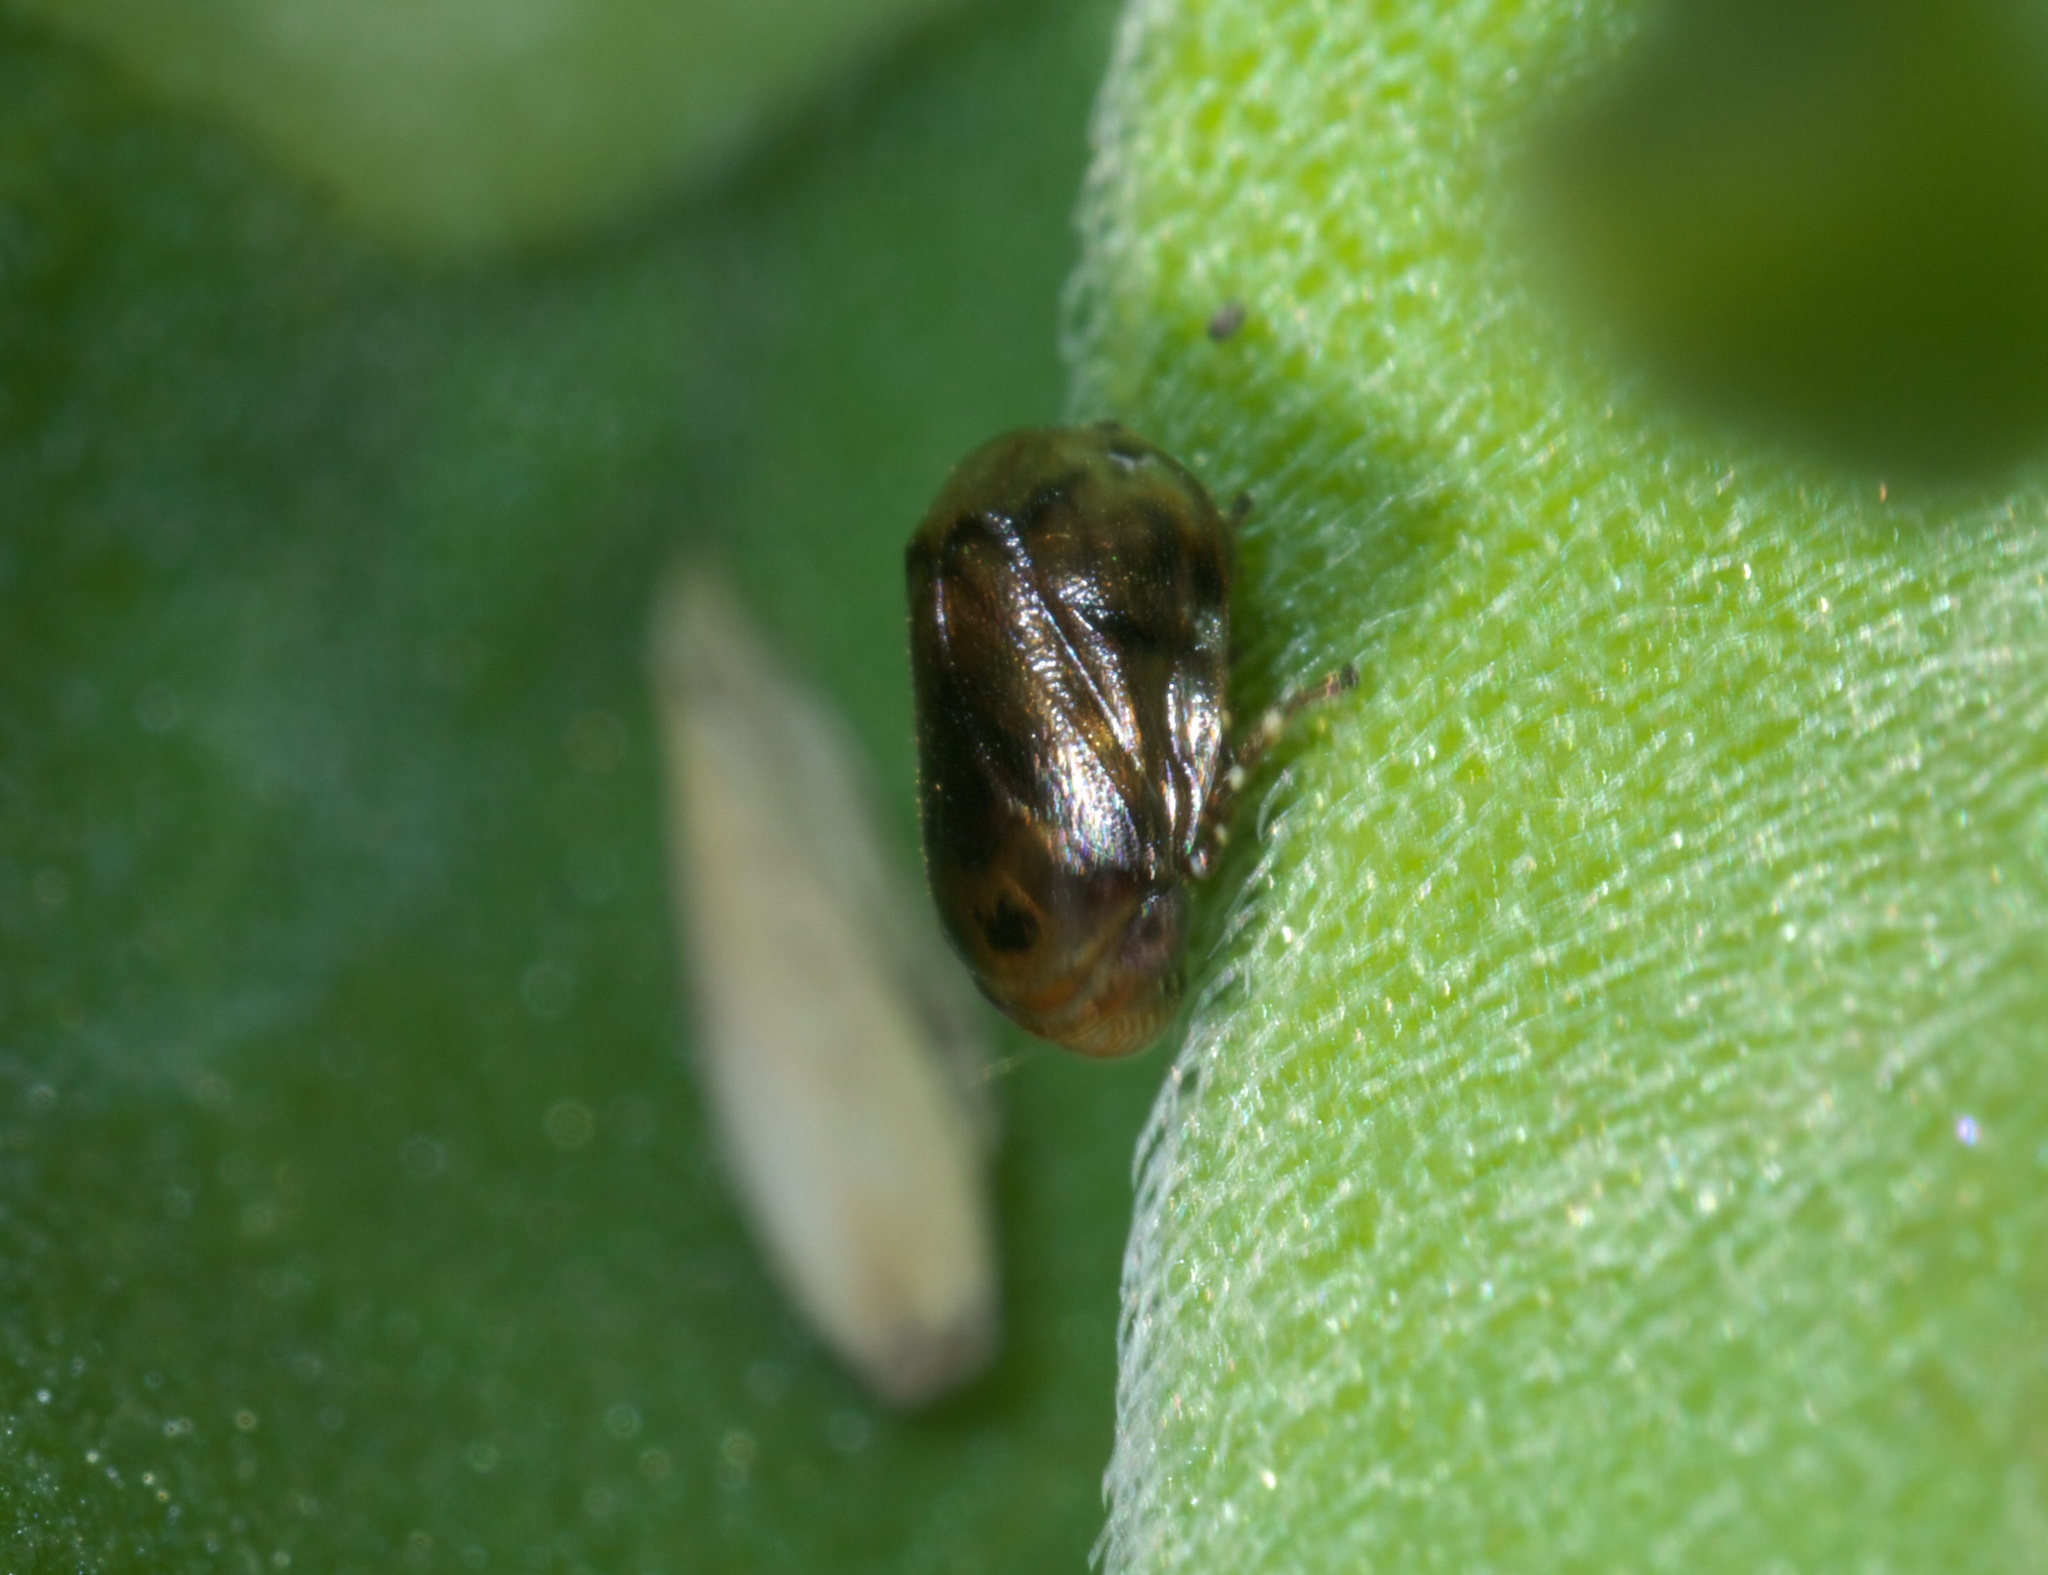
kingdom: Animalia
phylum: Arthropoda
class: Insecta
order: Hemiptera
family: Clastopteridae
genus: Clastoptera
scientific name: Clastoptera xanthocephala
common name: Sunflower spittlebug
